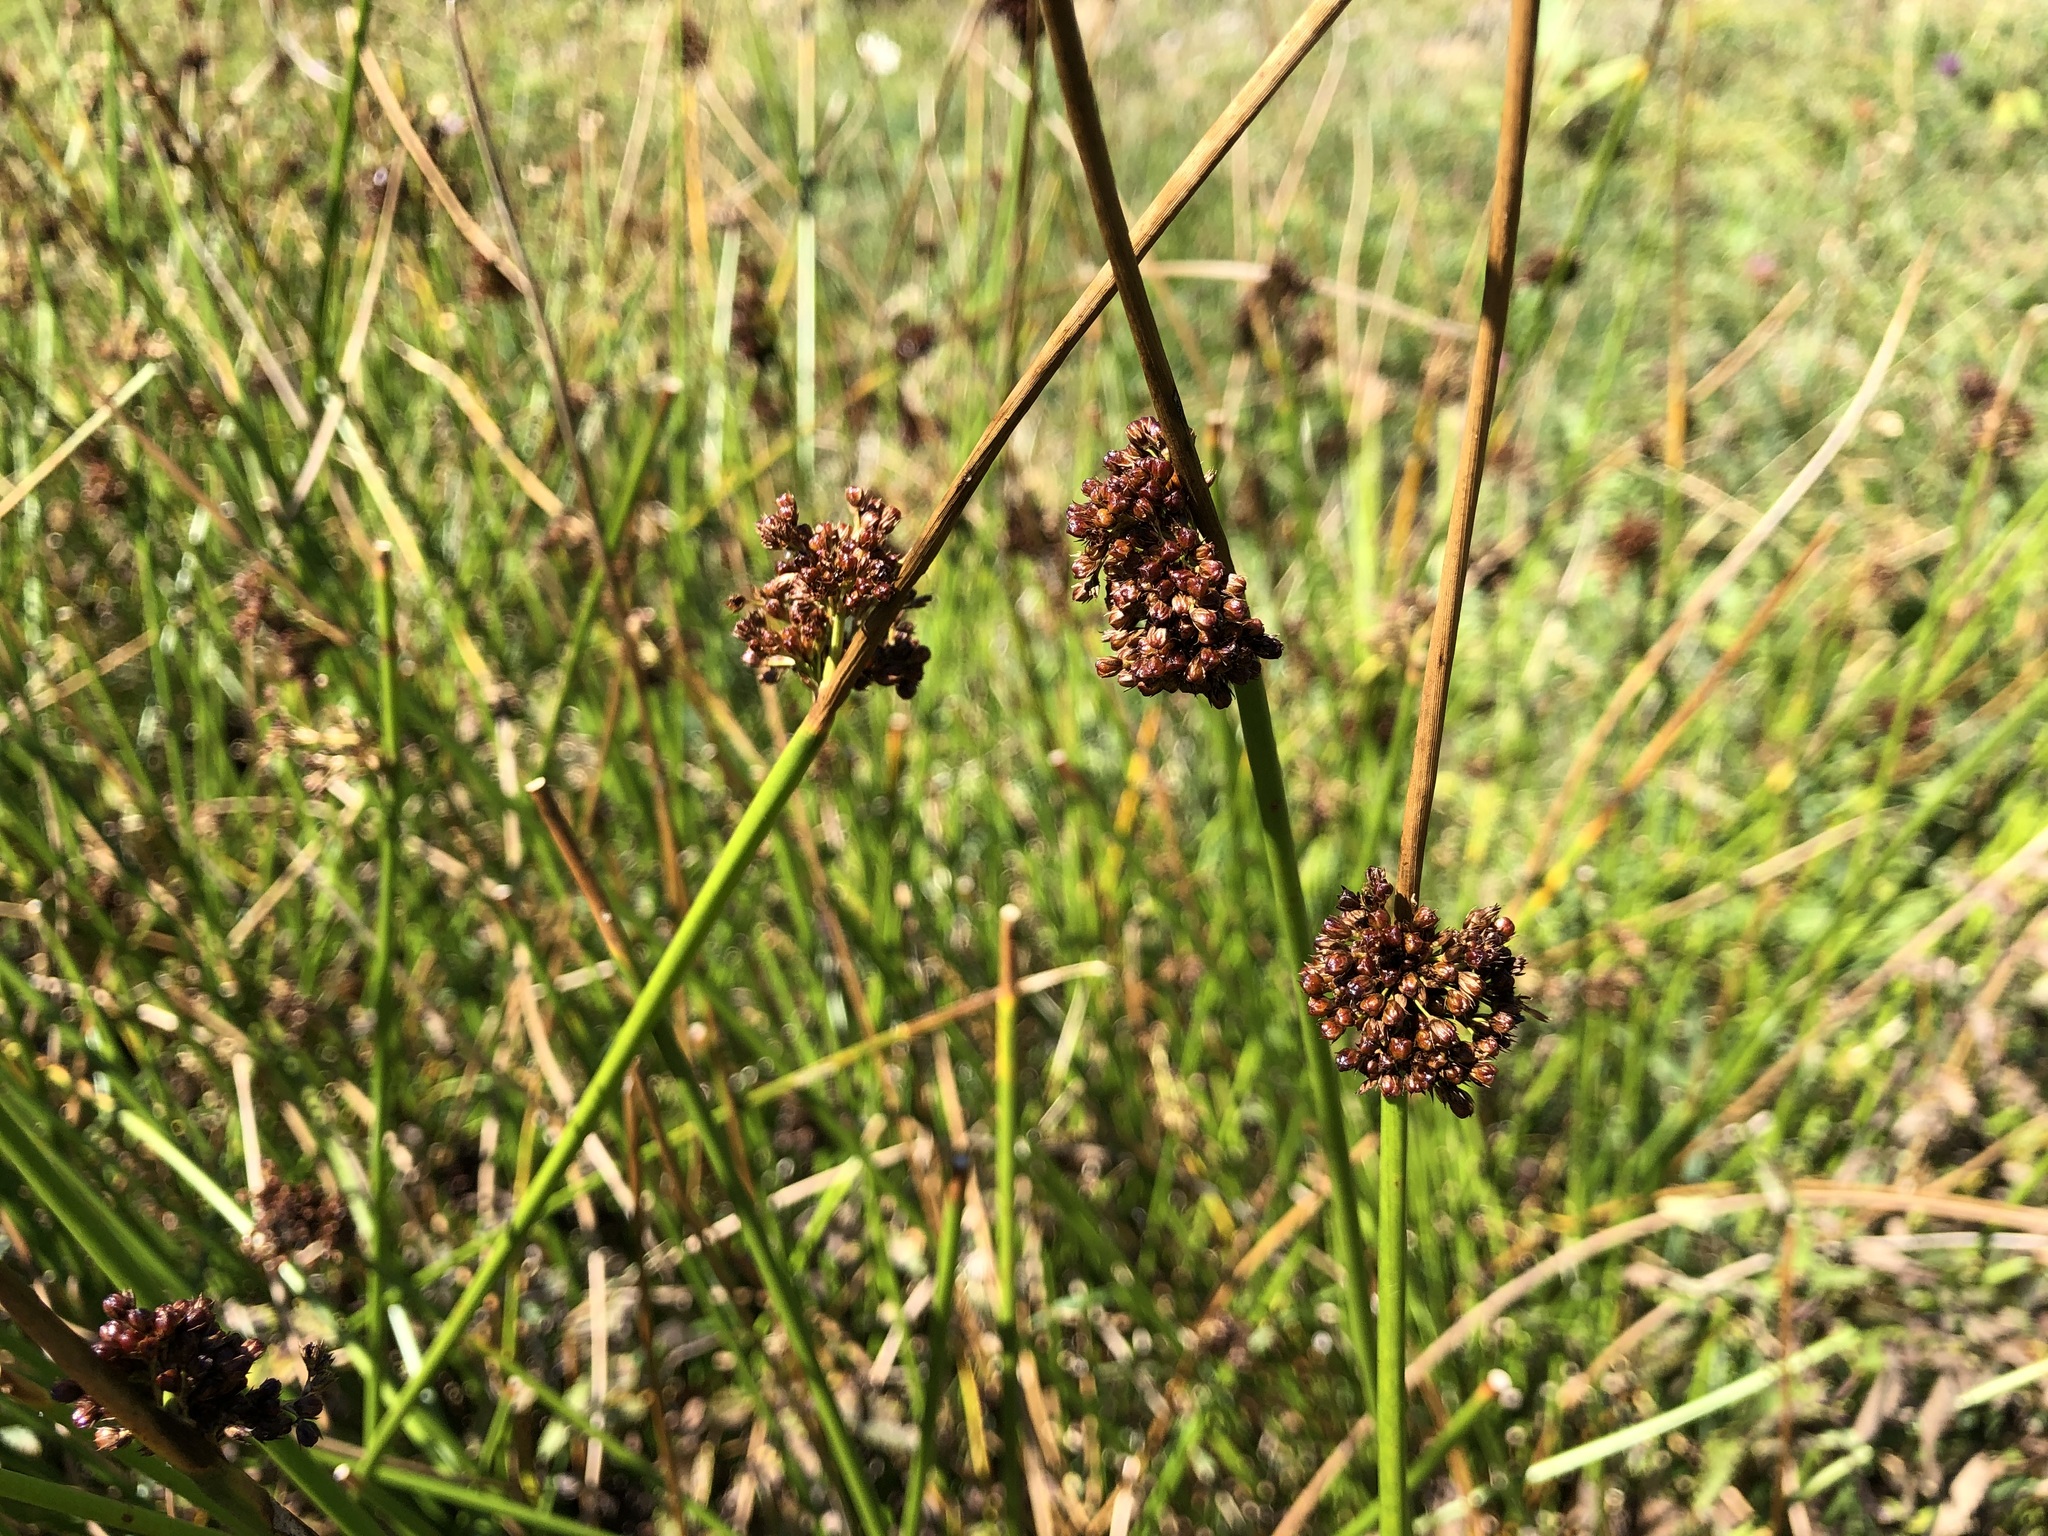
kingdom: Plantae
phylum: Tracheophyta
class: Liliopsida
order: Poales
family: Juncaceae
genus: Juncus
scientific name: Juncus effusus
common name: Soft rush
